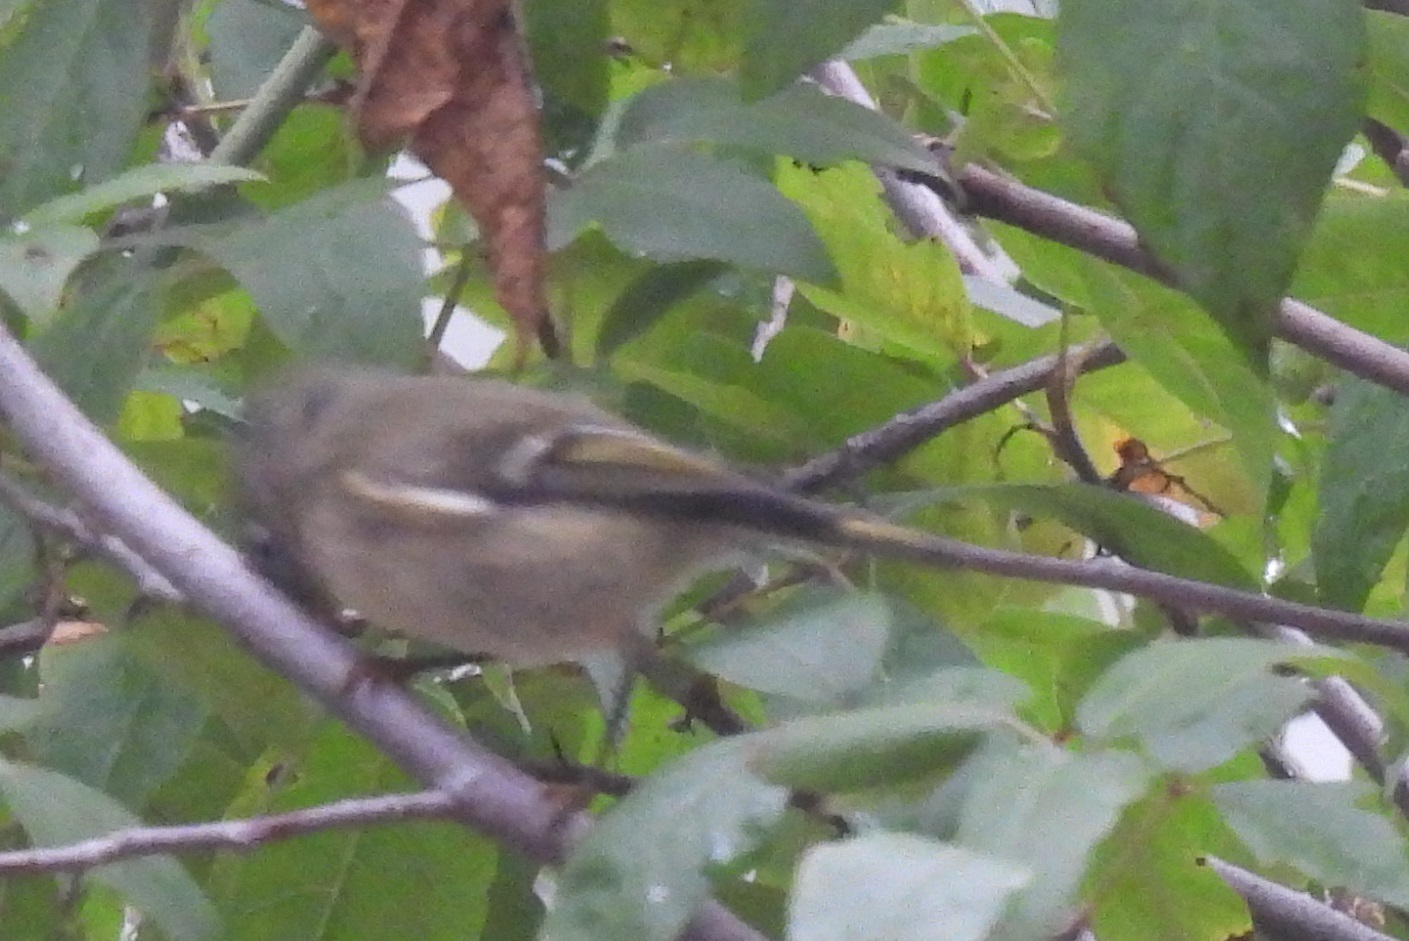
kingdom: Animalia
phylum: Chordata
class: Aves
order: Passeriformes
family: Regulidae
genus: Regulus
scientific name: Regulus calendula
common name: Ruby-crowned kinglet
